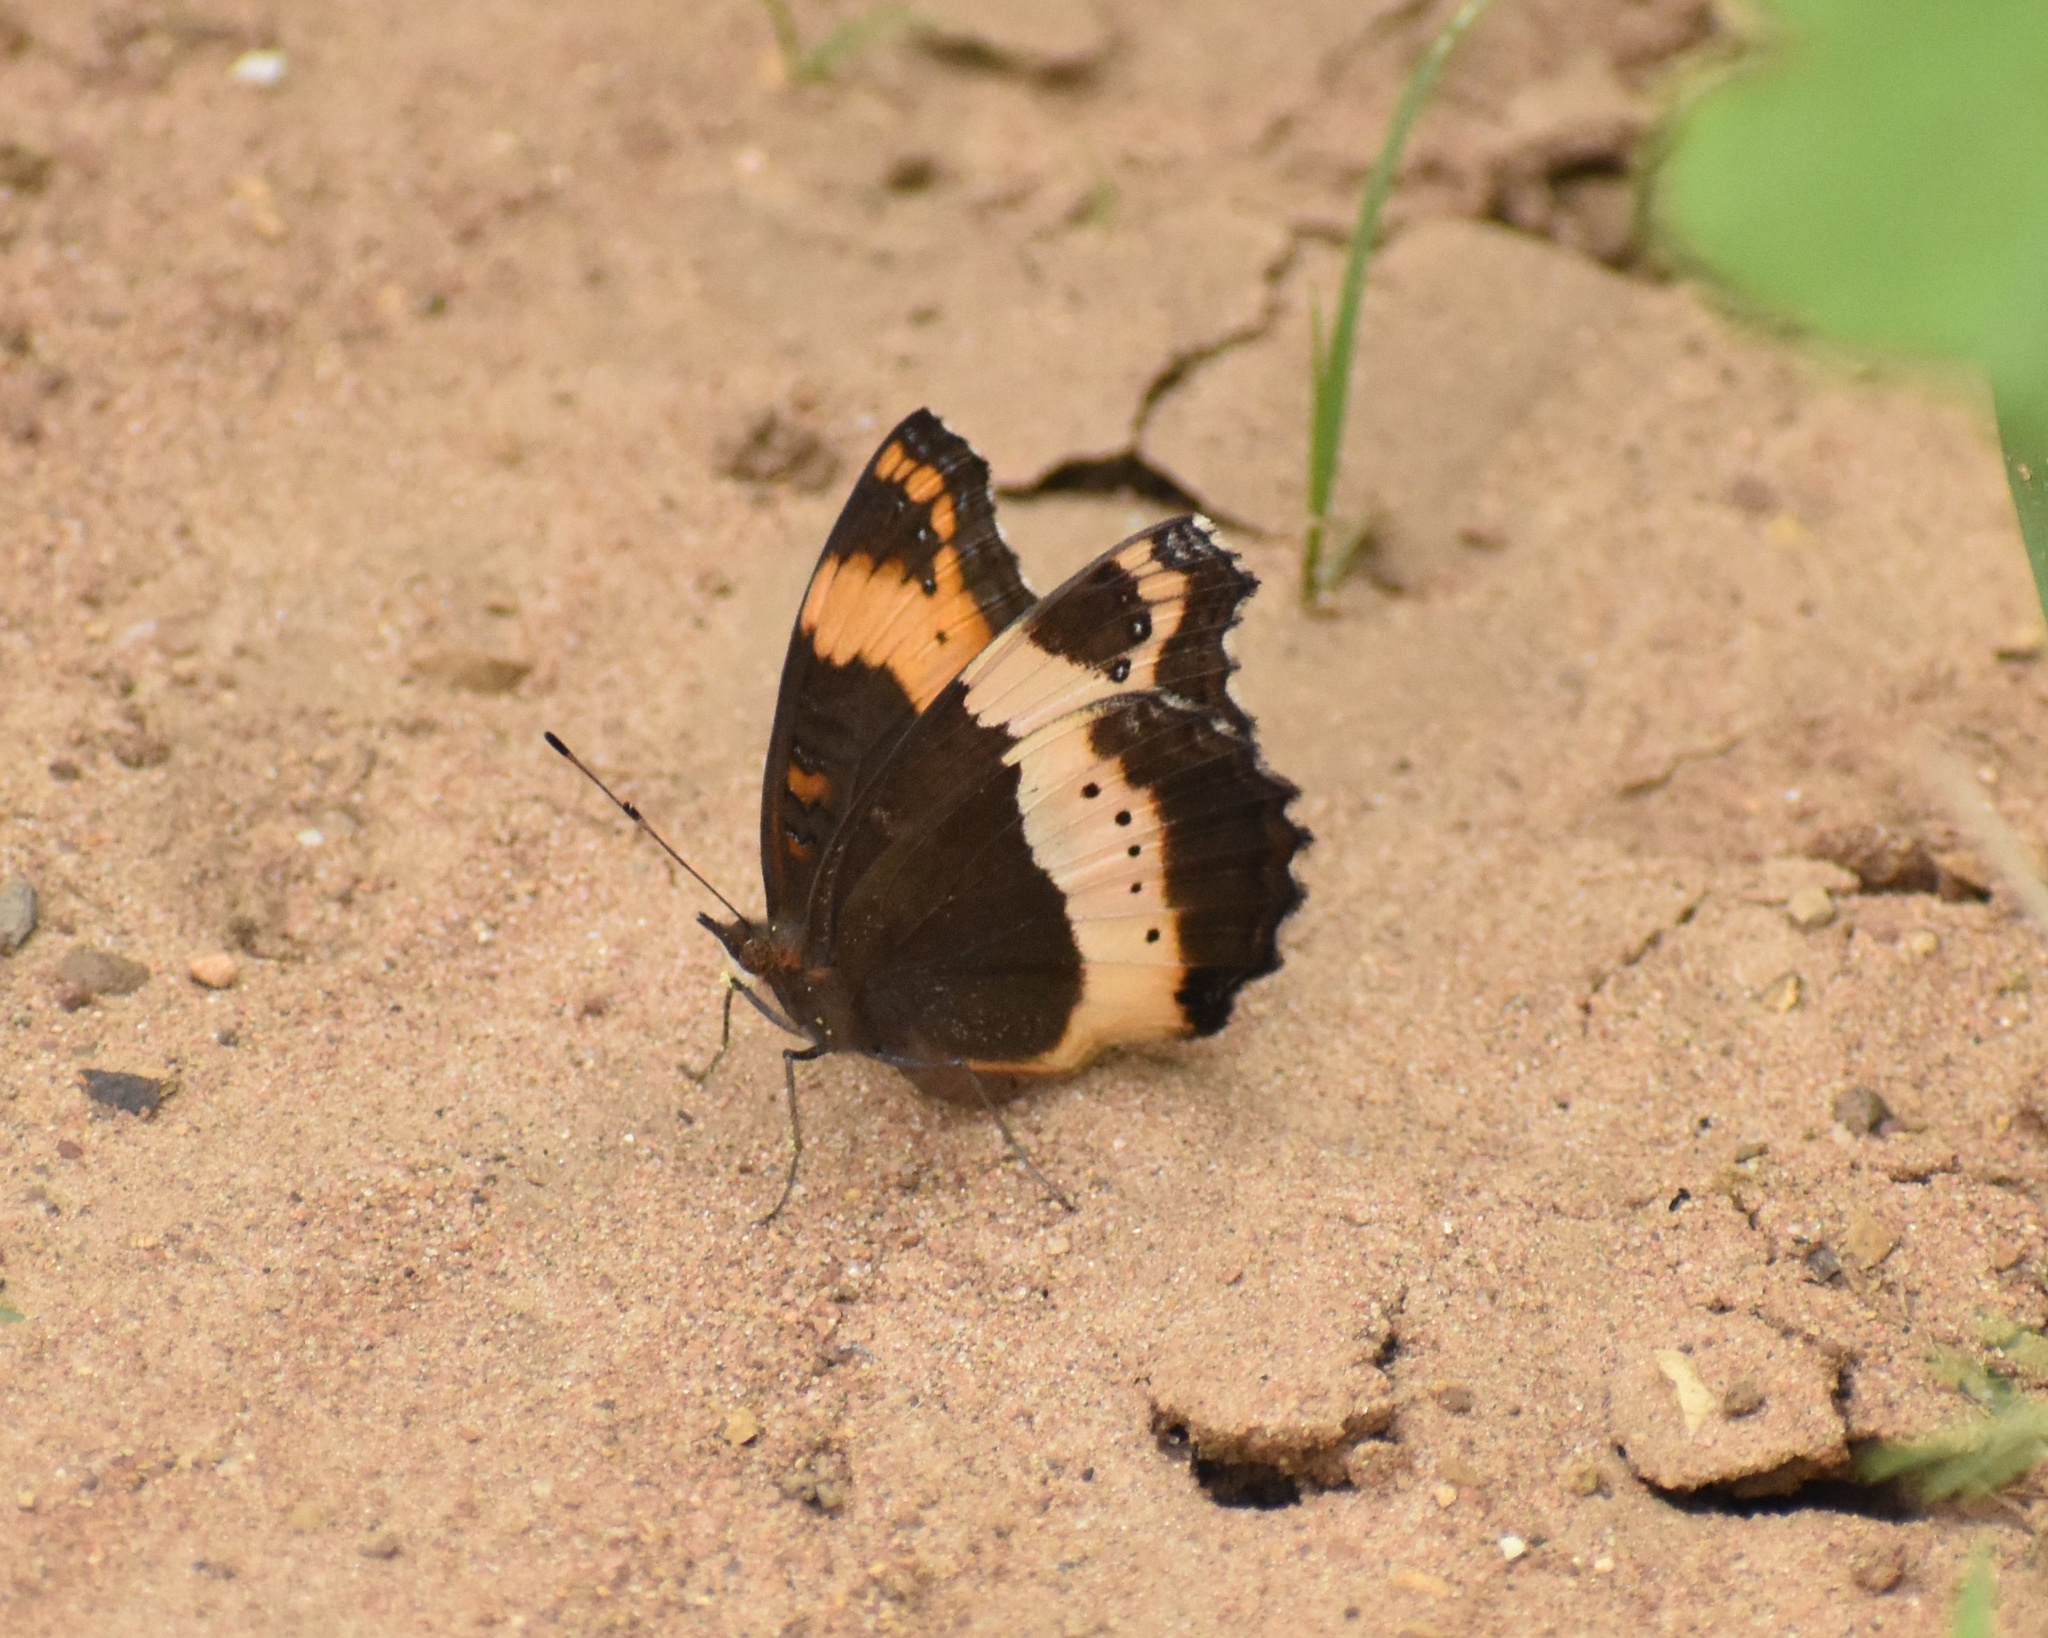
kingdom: Animalia
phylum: Arthropoda
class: Insecta
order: Lepidoptera
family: Nymphalidae
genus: Junonia
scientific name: Junonia archesia
